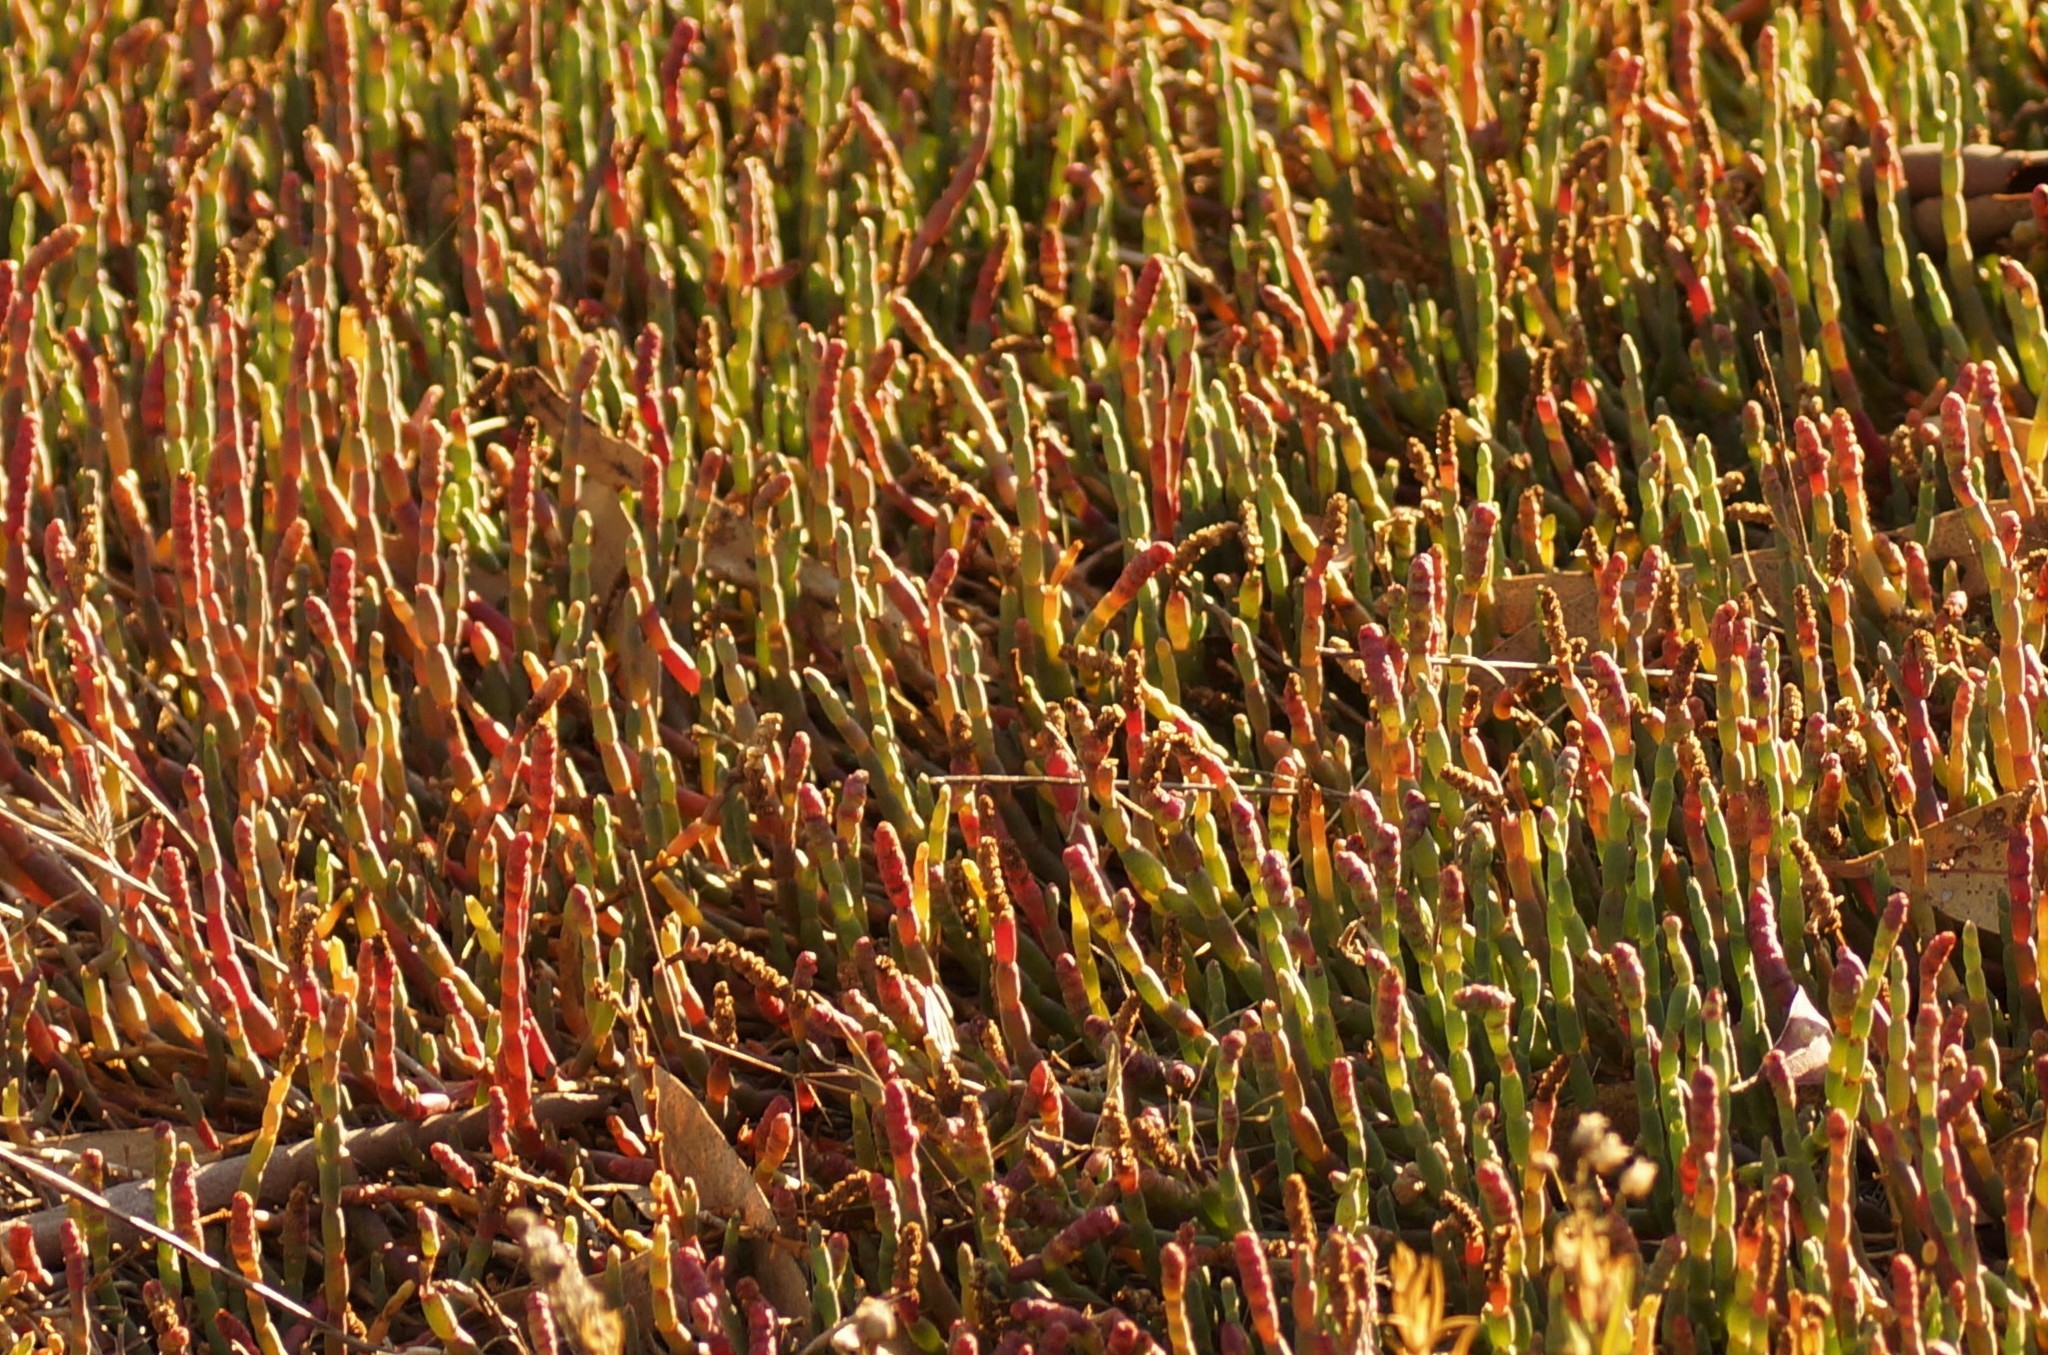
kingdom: Plantae
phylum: Tracheophyta
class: Magnoliopsida
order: Caryophyllales
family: Amaranthaceae
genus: Salicornia
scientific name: Salicornia quinqueflora
